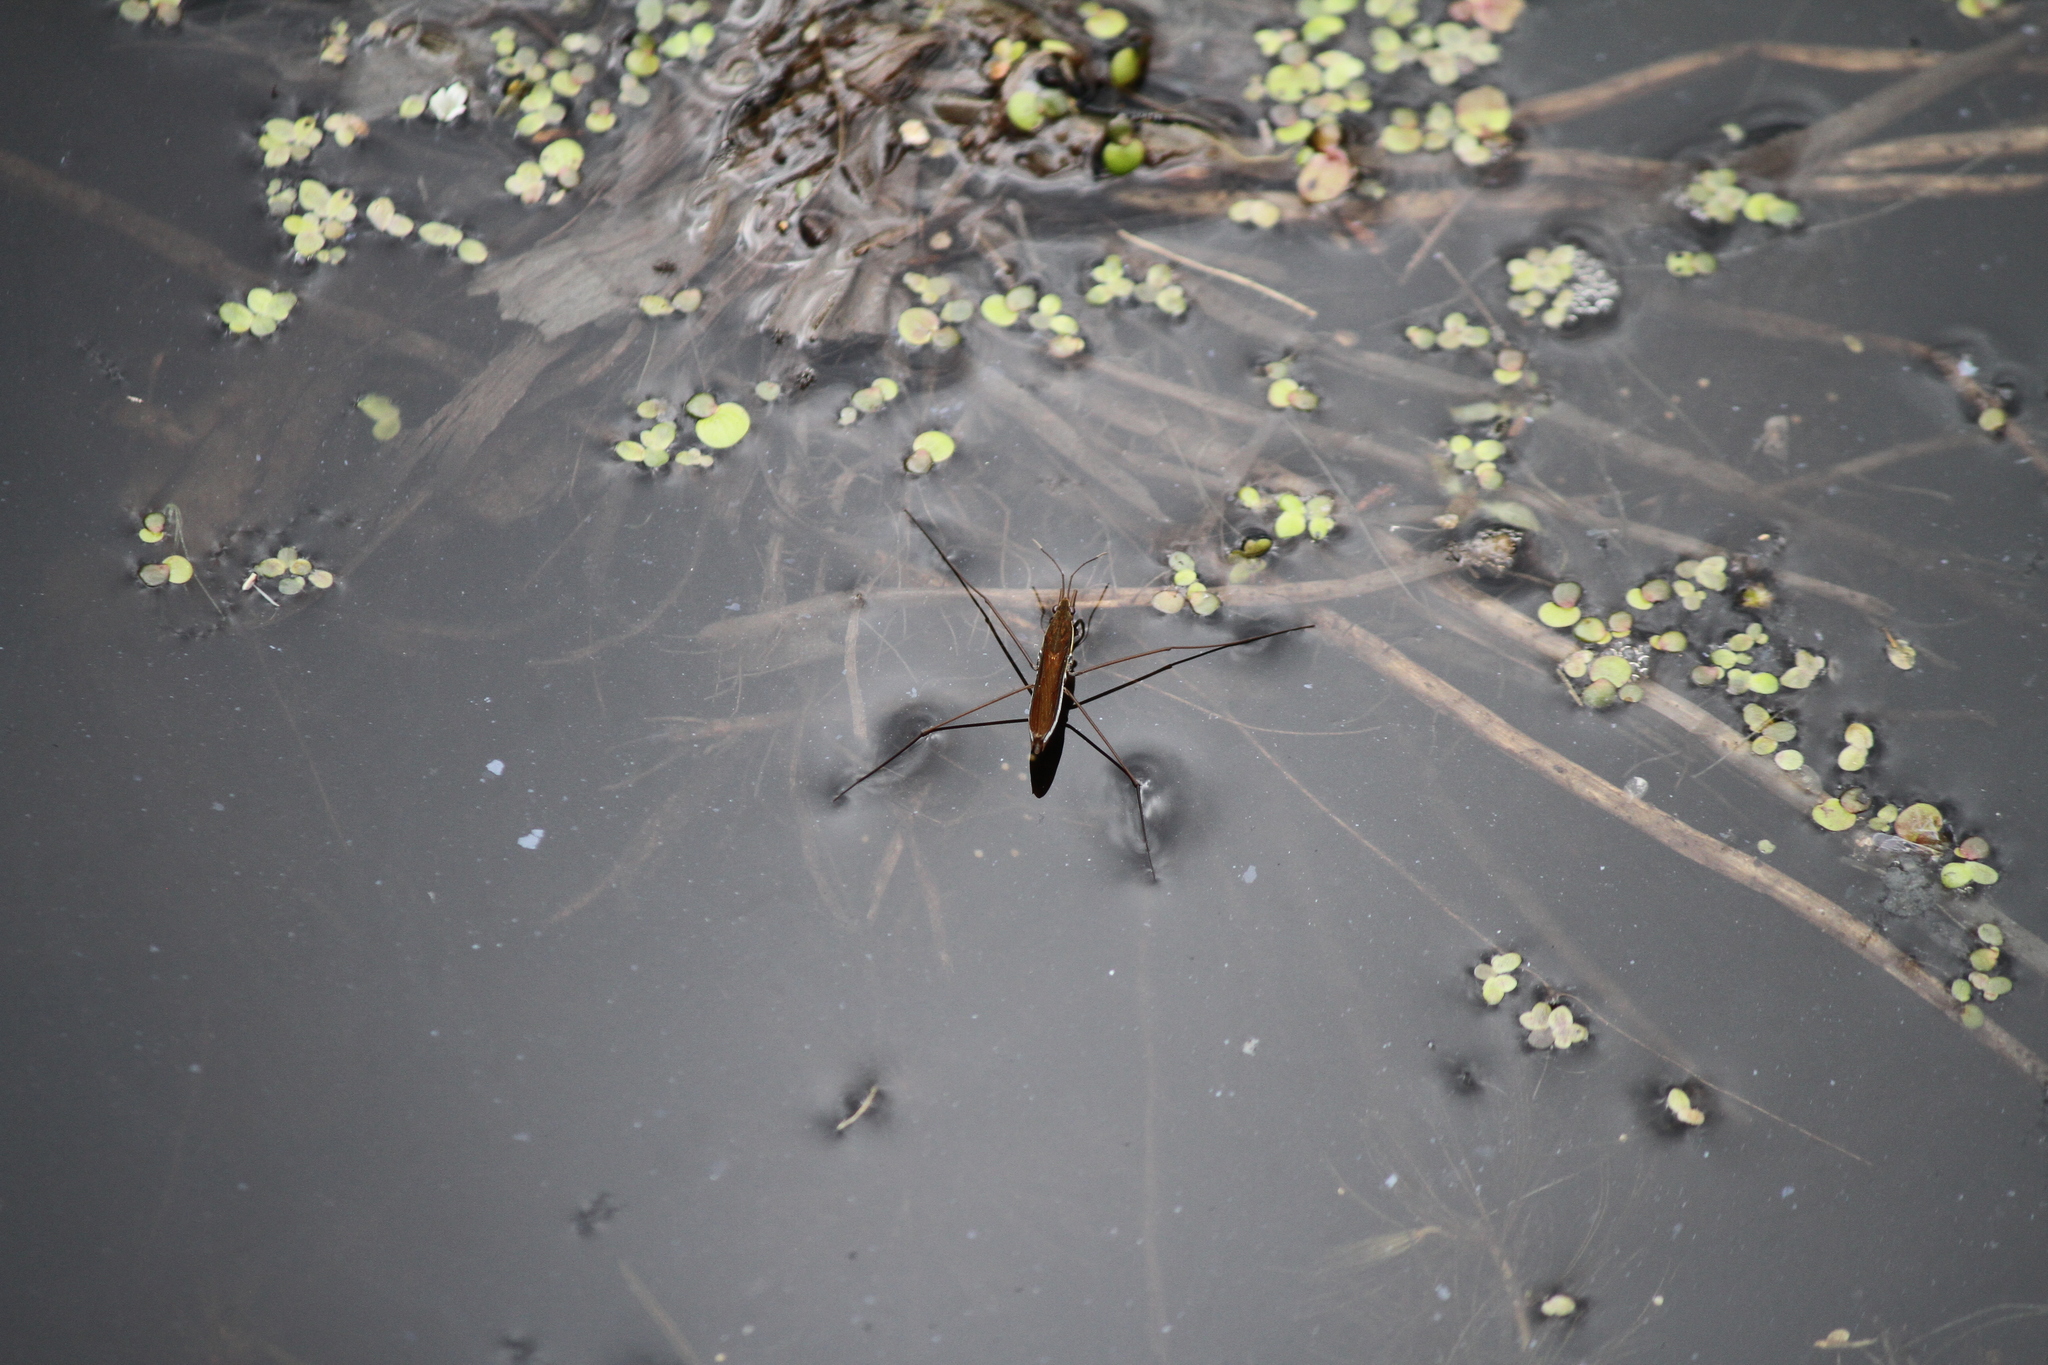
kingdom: Animalia
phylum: Arthropoda
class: Insecta
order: Hemiptera
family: Gerridae
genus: Limnoporus
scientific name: Limnoporus dissortis
